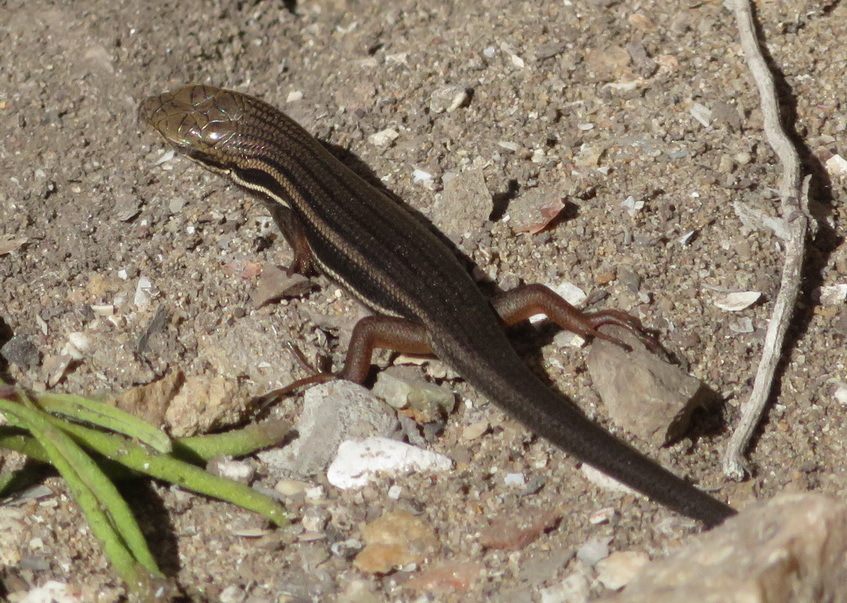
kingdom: Animalia
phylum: Chordata
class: Squamata
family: Scincidae
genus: Trachylepis
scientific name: Trachylepis homalocephala
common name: Red-sided skink
